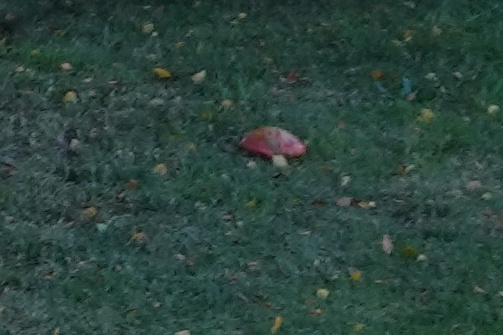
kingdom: Fungi
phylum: Basidiomycota
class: Agaricomycetes
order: Agaricales
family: Amanitaceae
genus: Amanita
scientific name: Amanita muscaria
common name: Fly agaric
